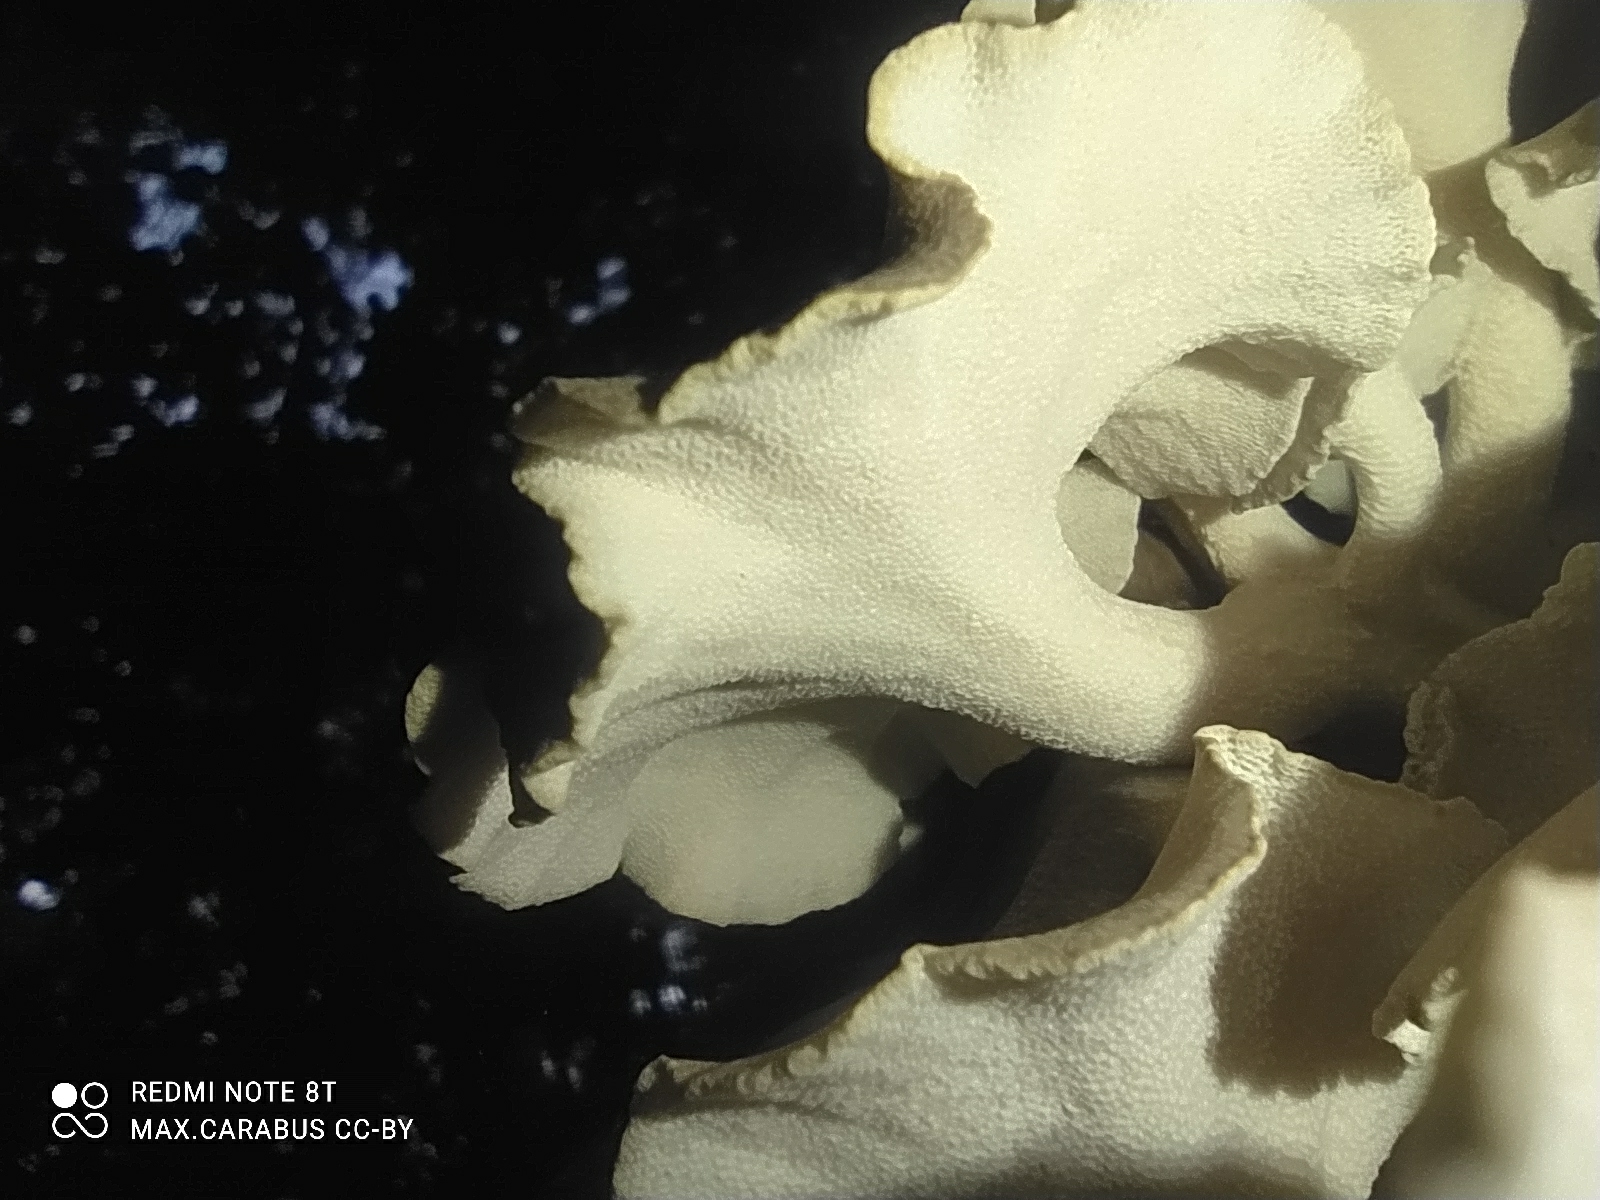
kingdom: Fungi
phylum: Basidiomycota
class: Agaricomycetes
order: Polyporales
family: Polyporaceae
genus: Polyporus
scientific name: Polyporus umbellatus
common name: Umbrella polypore
